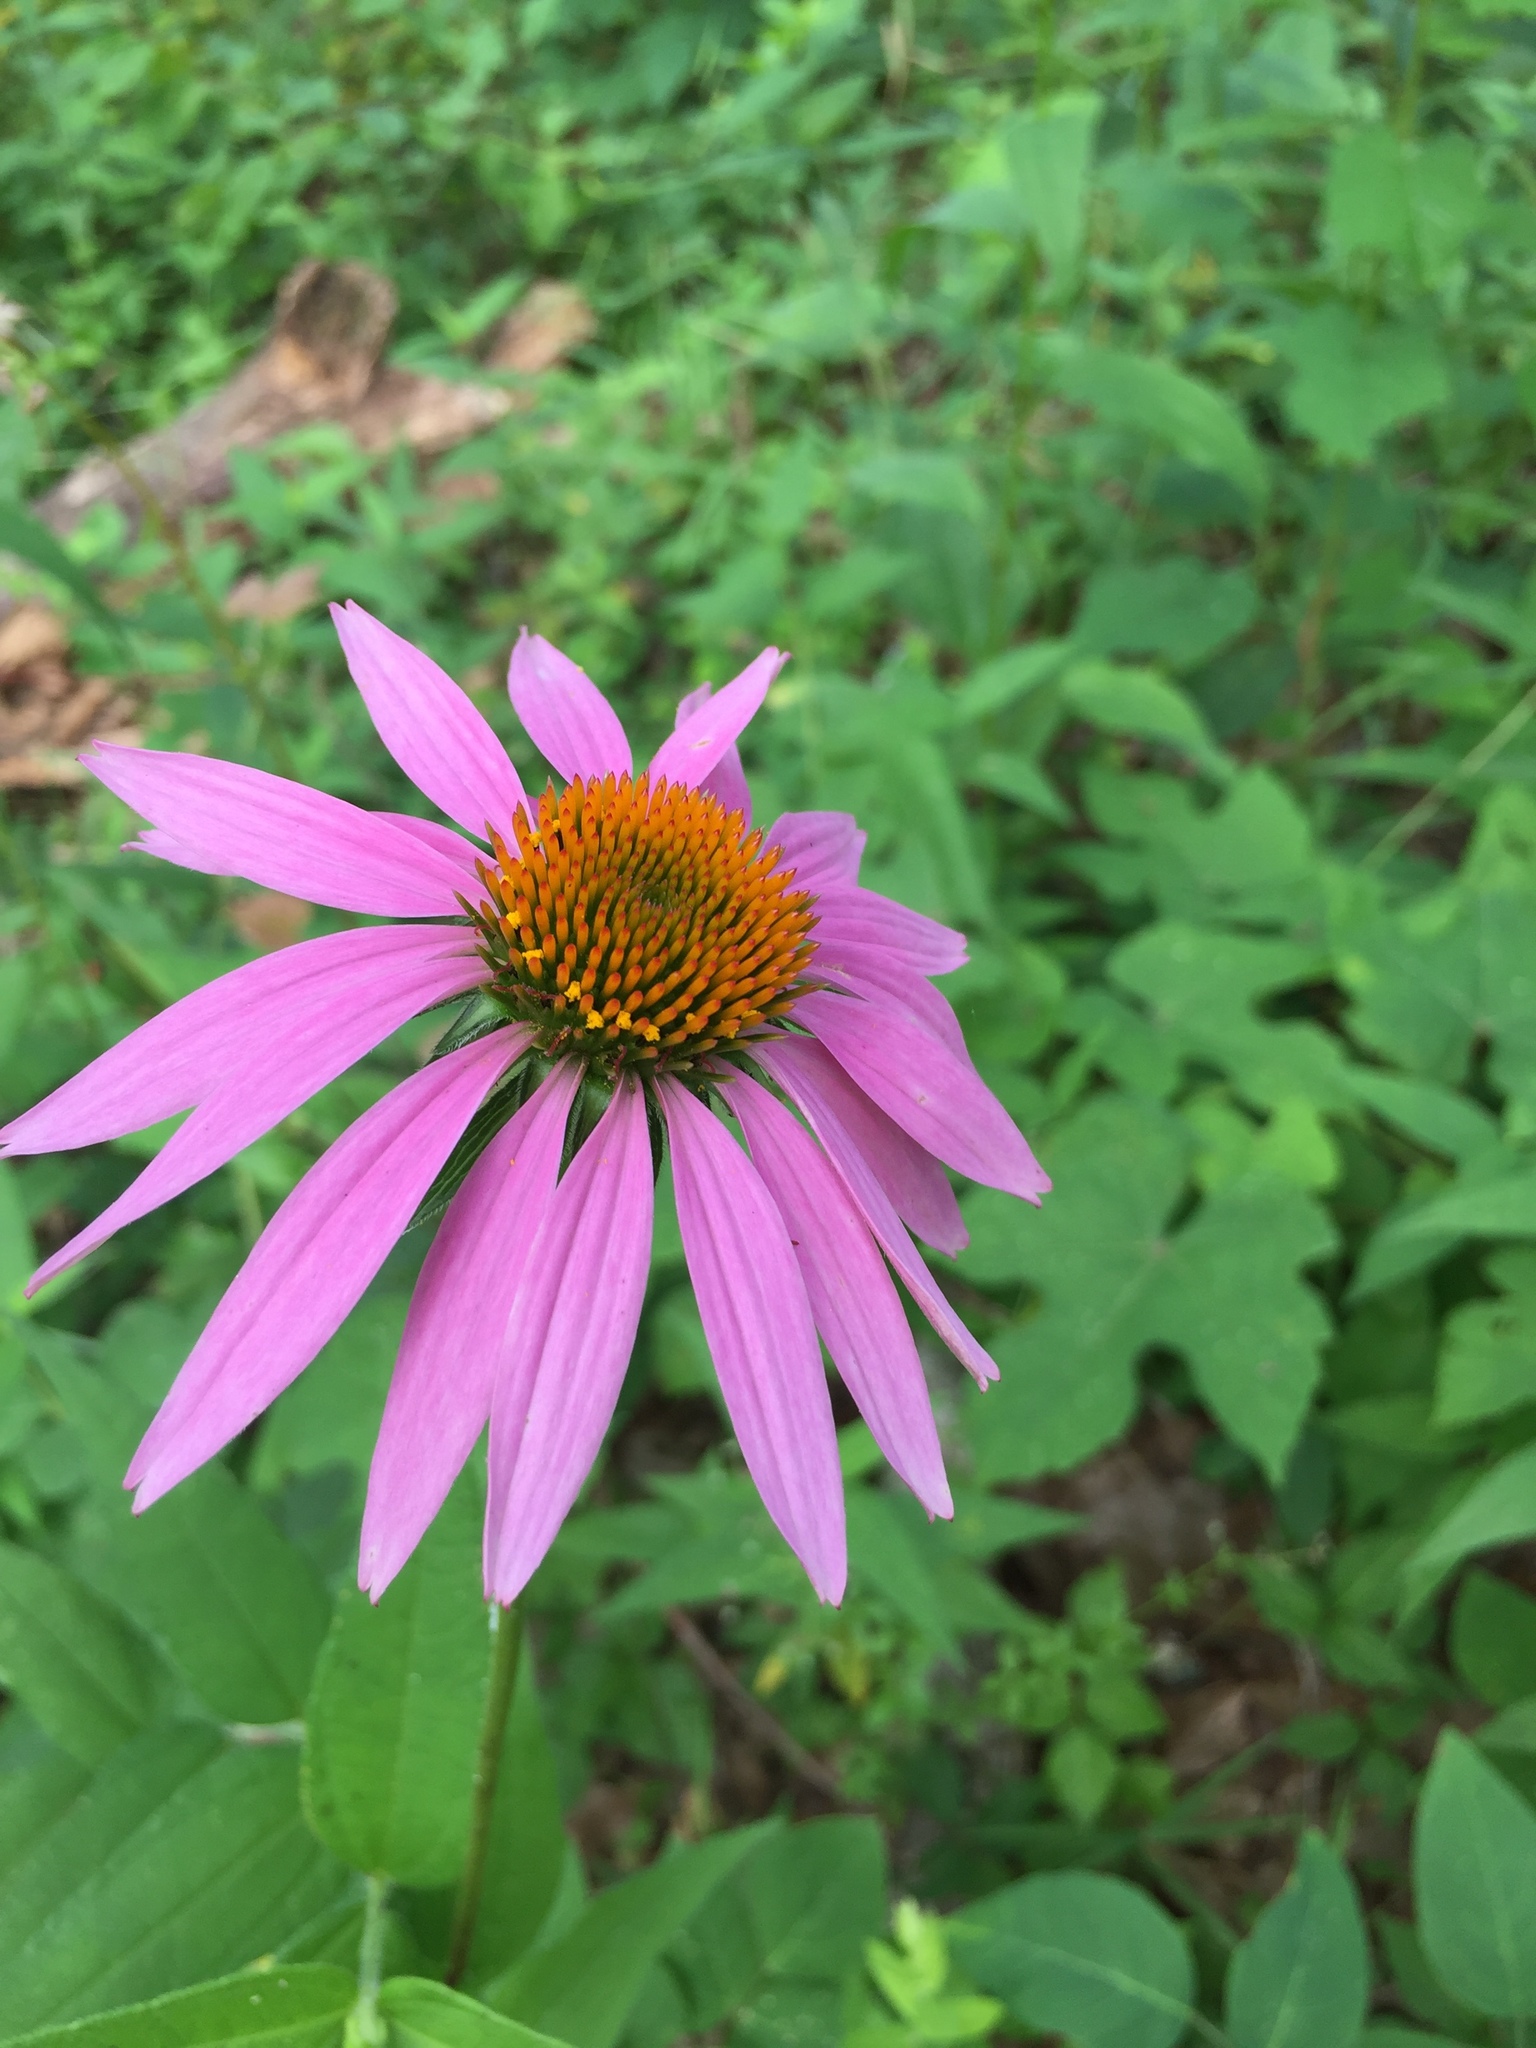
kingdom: Plantae
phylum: Tracheophyta
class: Magnoliopsida
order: Asterales
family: Asteraceae
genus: Echinacea
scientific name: Echinacea purpurea
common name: Broad-leaved purple coneflower
